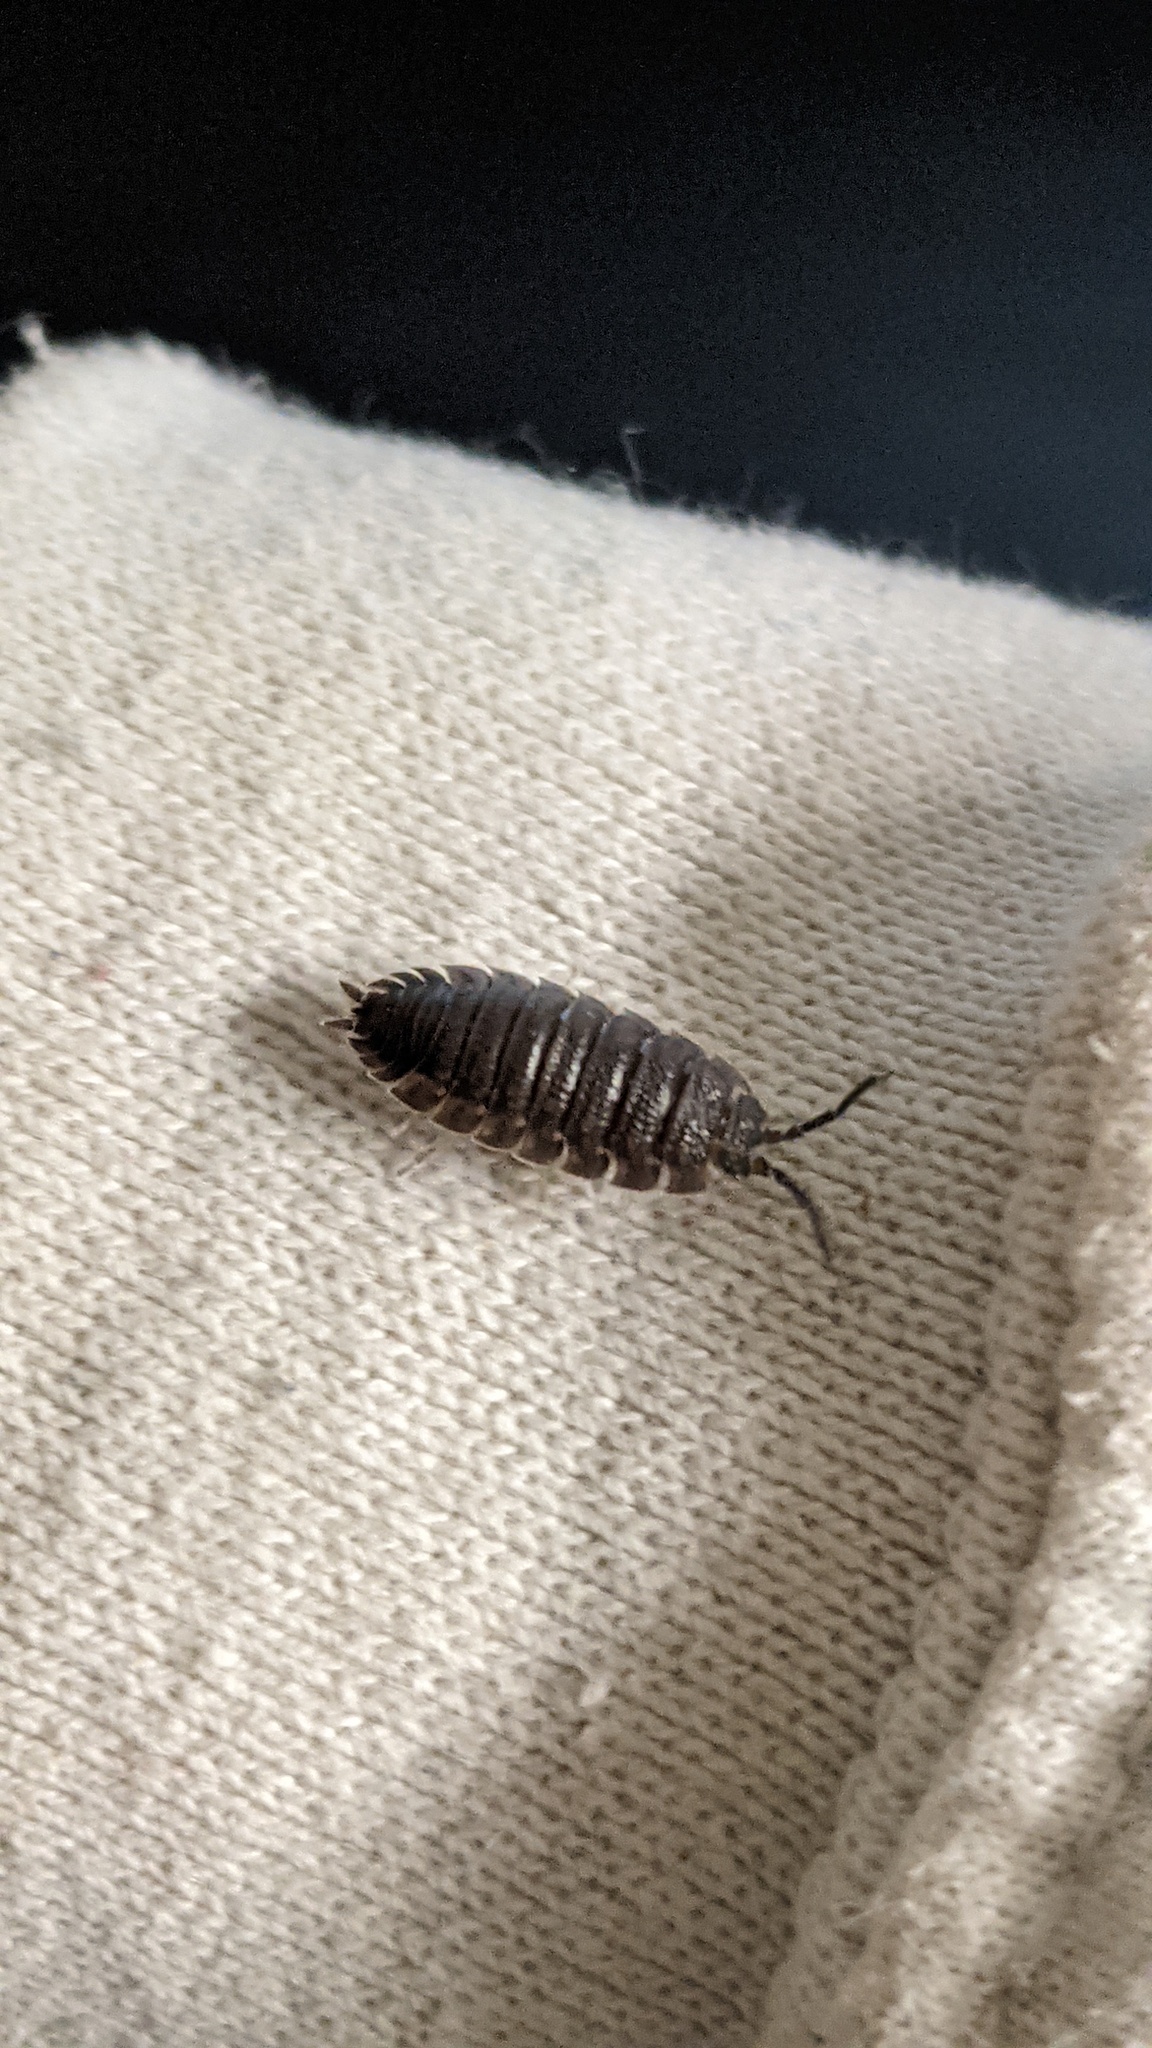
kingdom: Animalia
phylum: Arthropoda
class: Malacostraca
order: Isopoda
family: Porcellionidae
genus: Porcellio
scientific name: Porcellio scaber
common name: Common rough woodlouse
